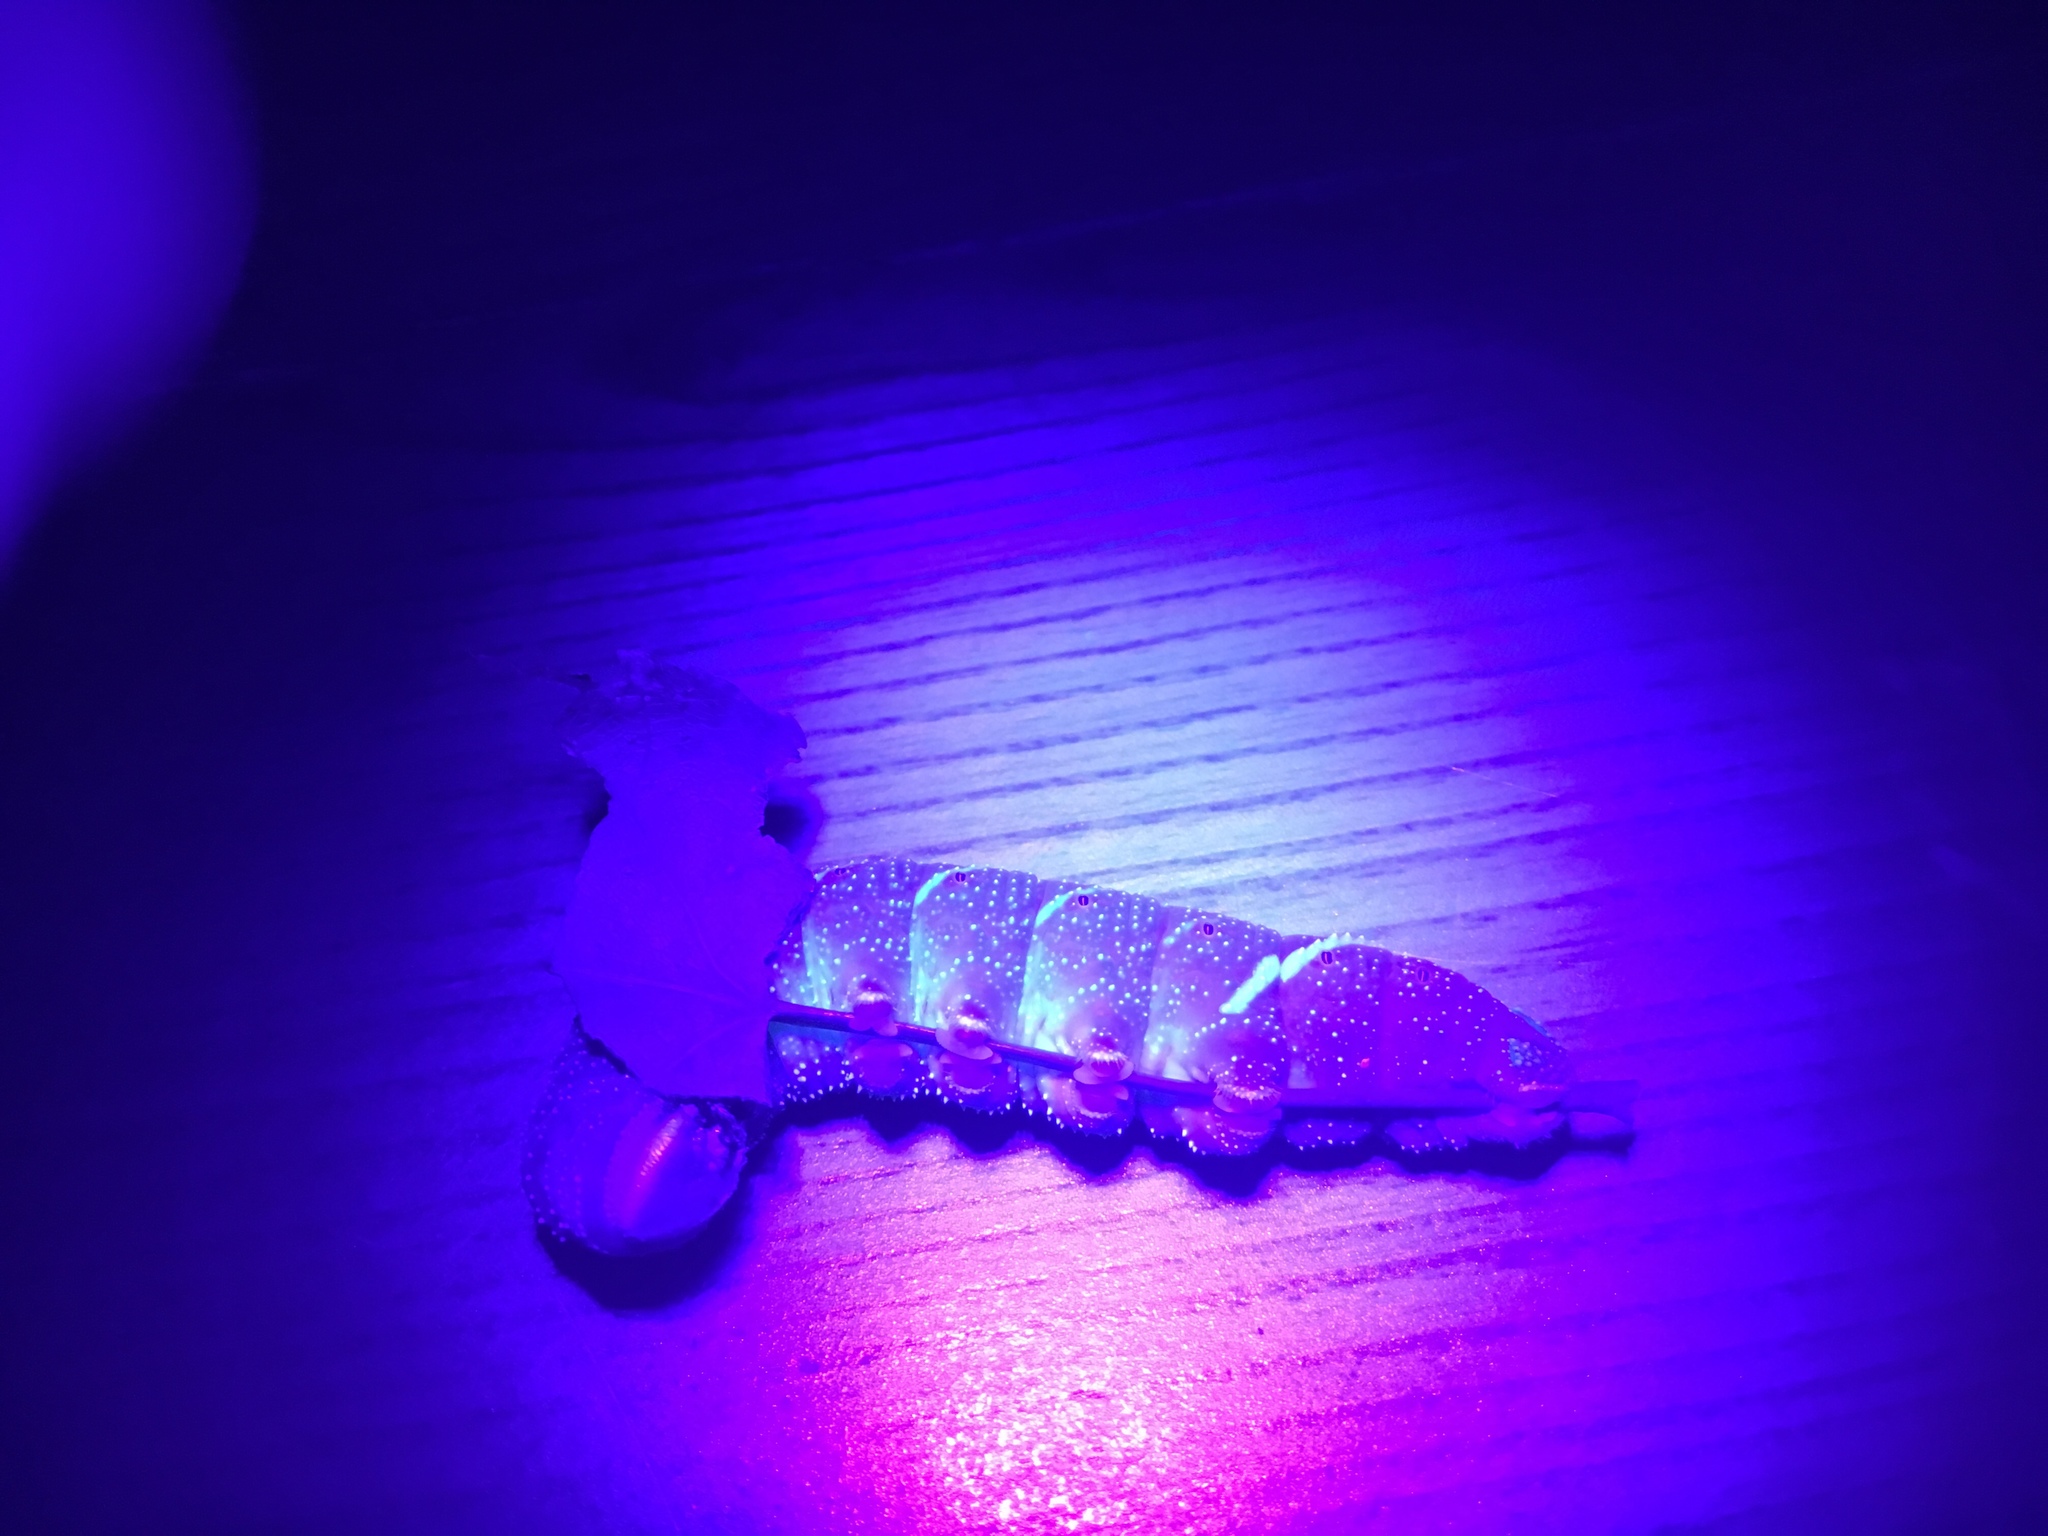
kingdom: Animalia
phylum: Arthropoda
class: Insecta
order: Lepidoptera
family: Sphingidae
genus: Pachysphinx
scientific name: Pachysphinx modesta
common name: Big poplar sphinx
